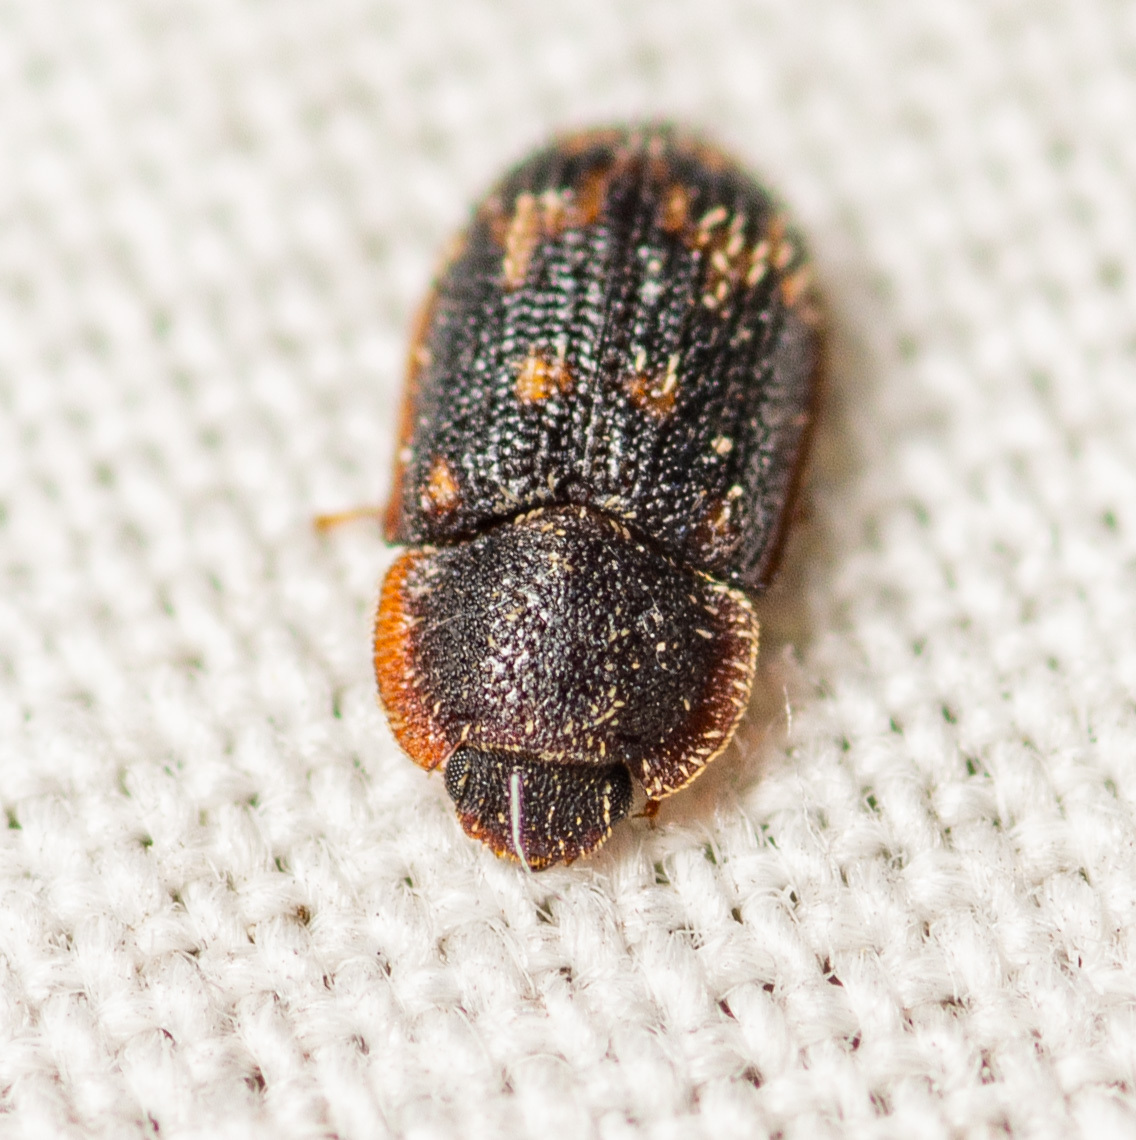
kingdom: Animalia
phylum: Arthropoda
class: Insecta
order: Coleoptera
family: Zopheridae
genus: Eucicones
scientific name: Eucicones marginalis
